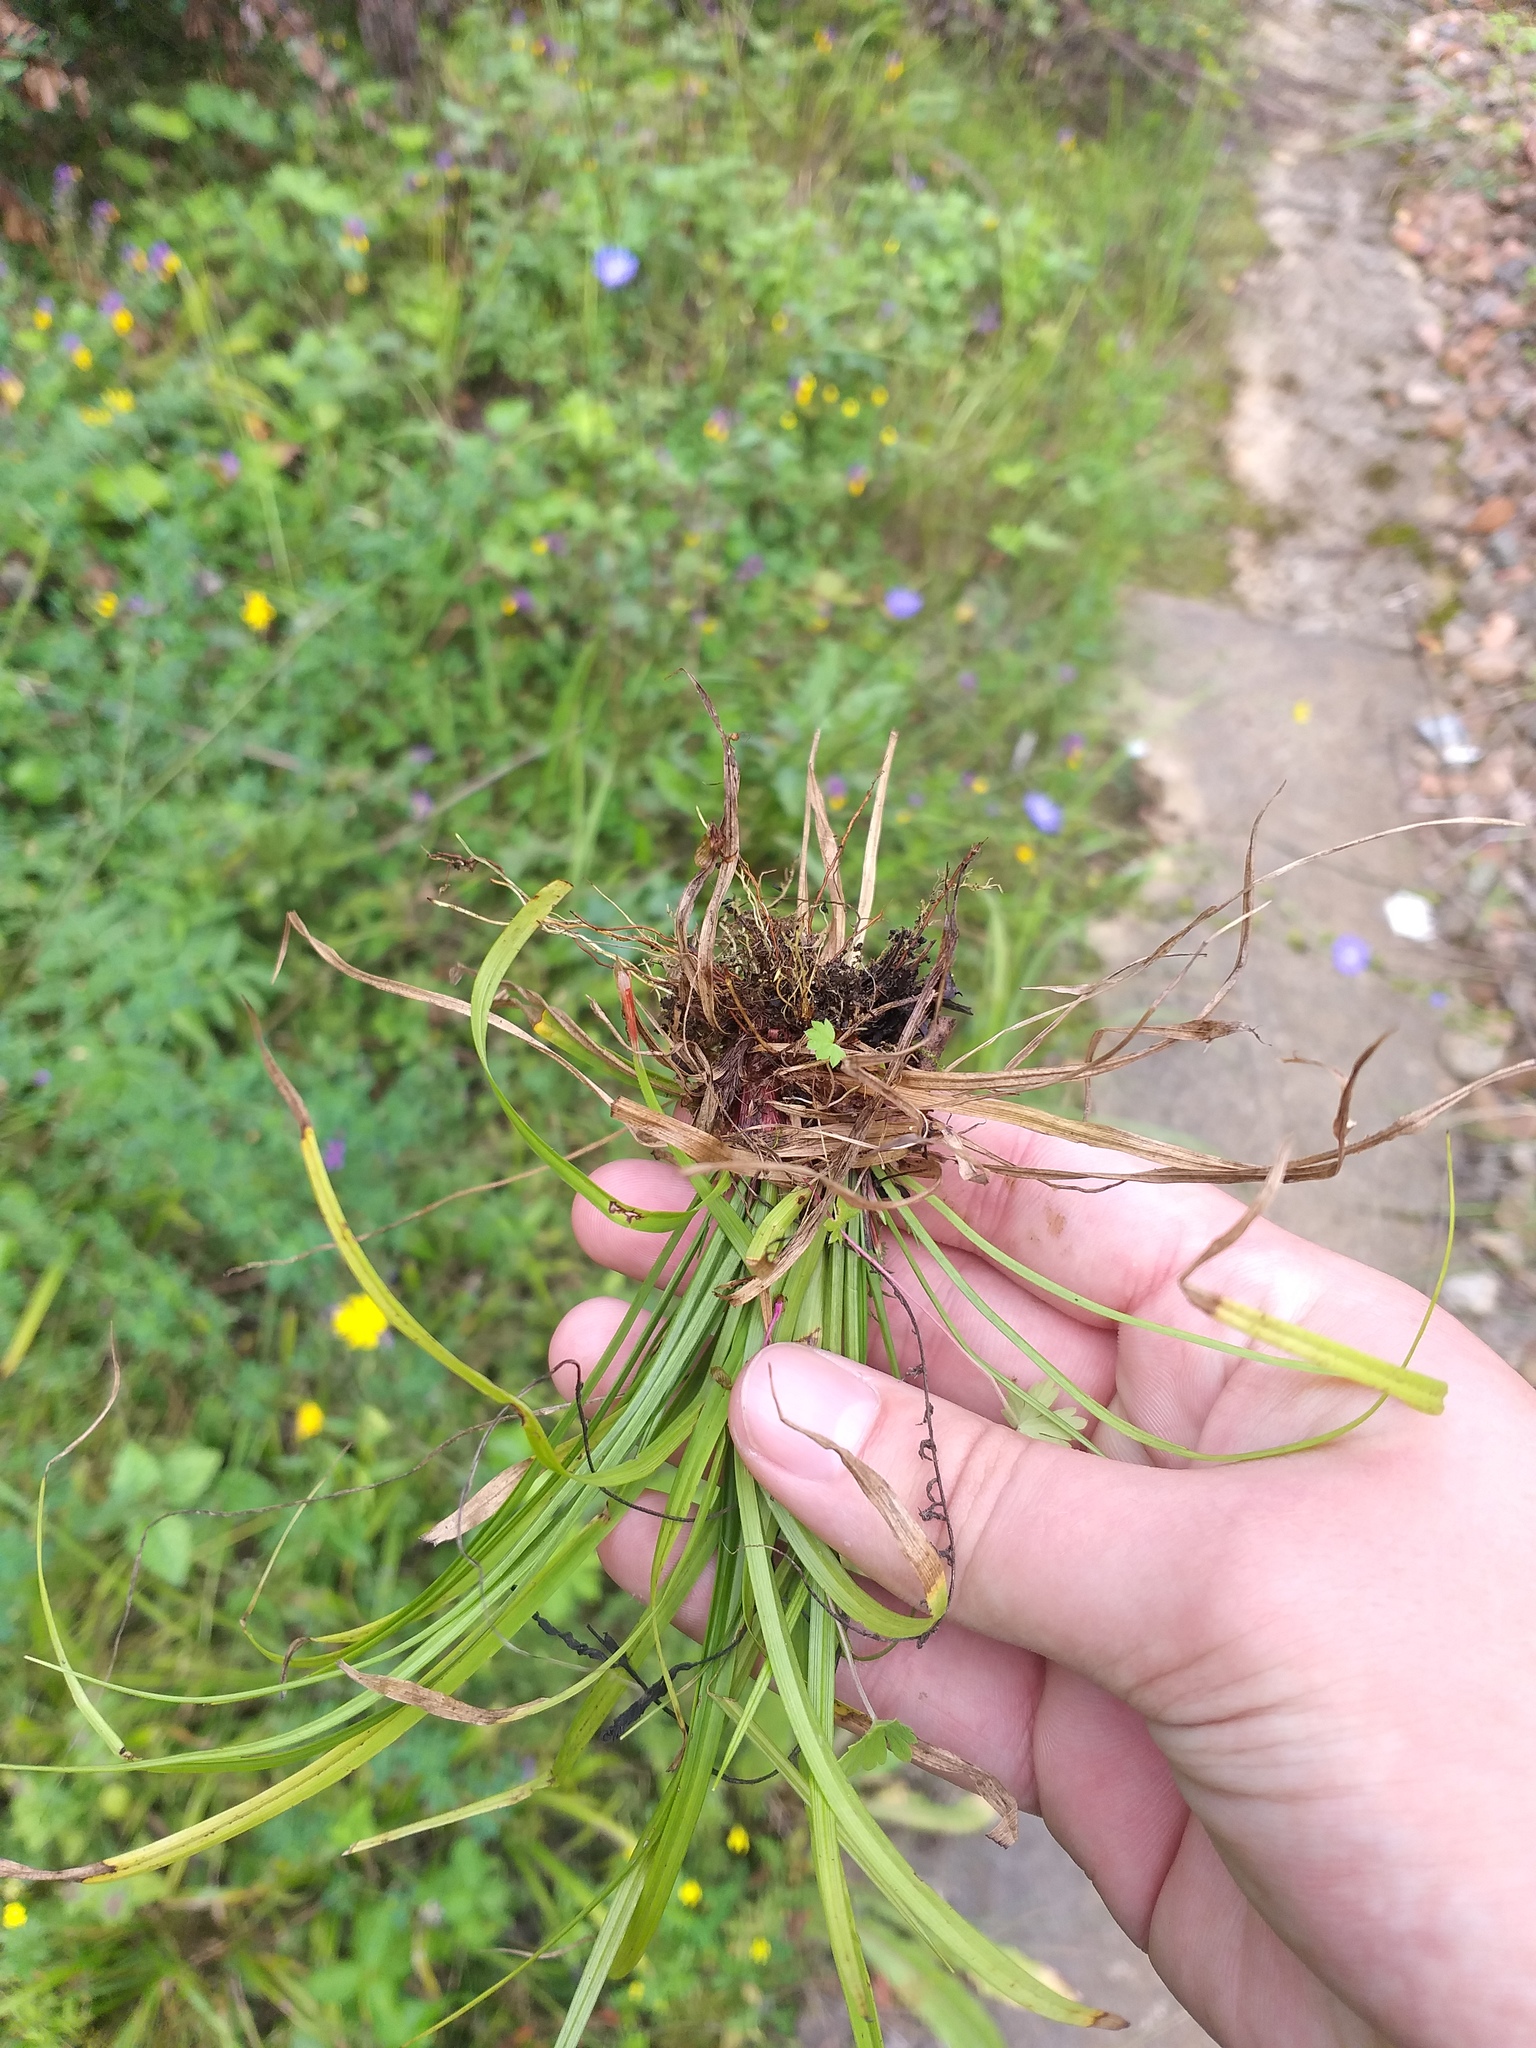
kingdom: Plantae
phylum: Tracheophyta
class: Liliopsida
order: Poales
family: Cyperaceae
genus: Carex
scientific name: Carex digitata
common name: Fingered sedge
